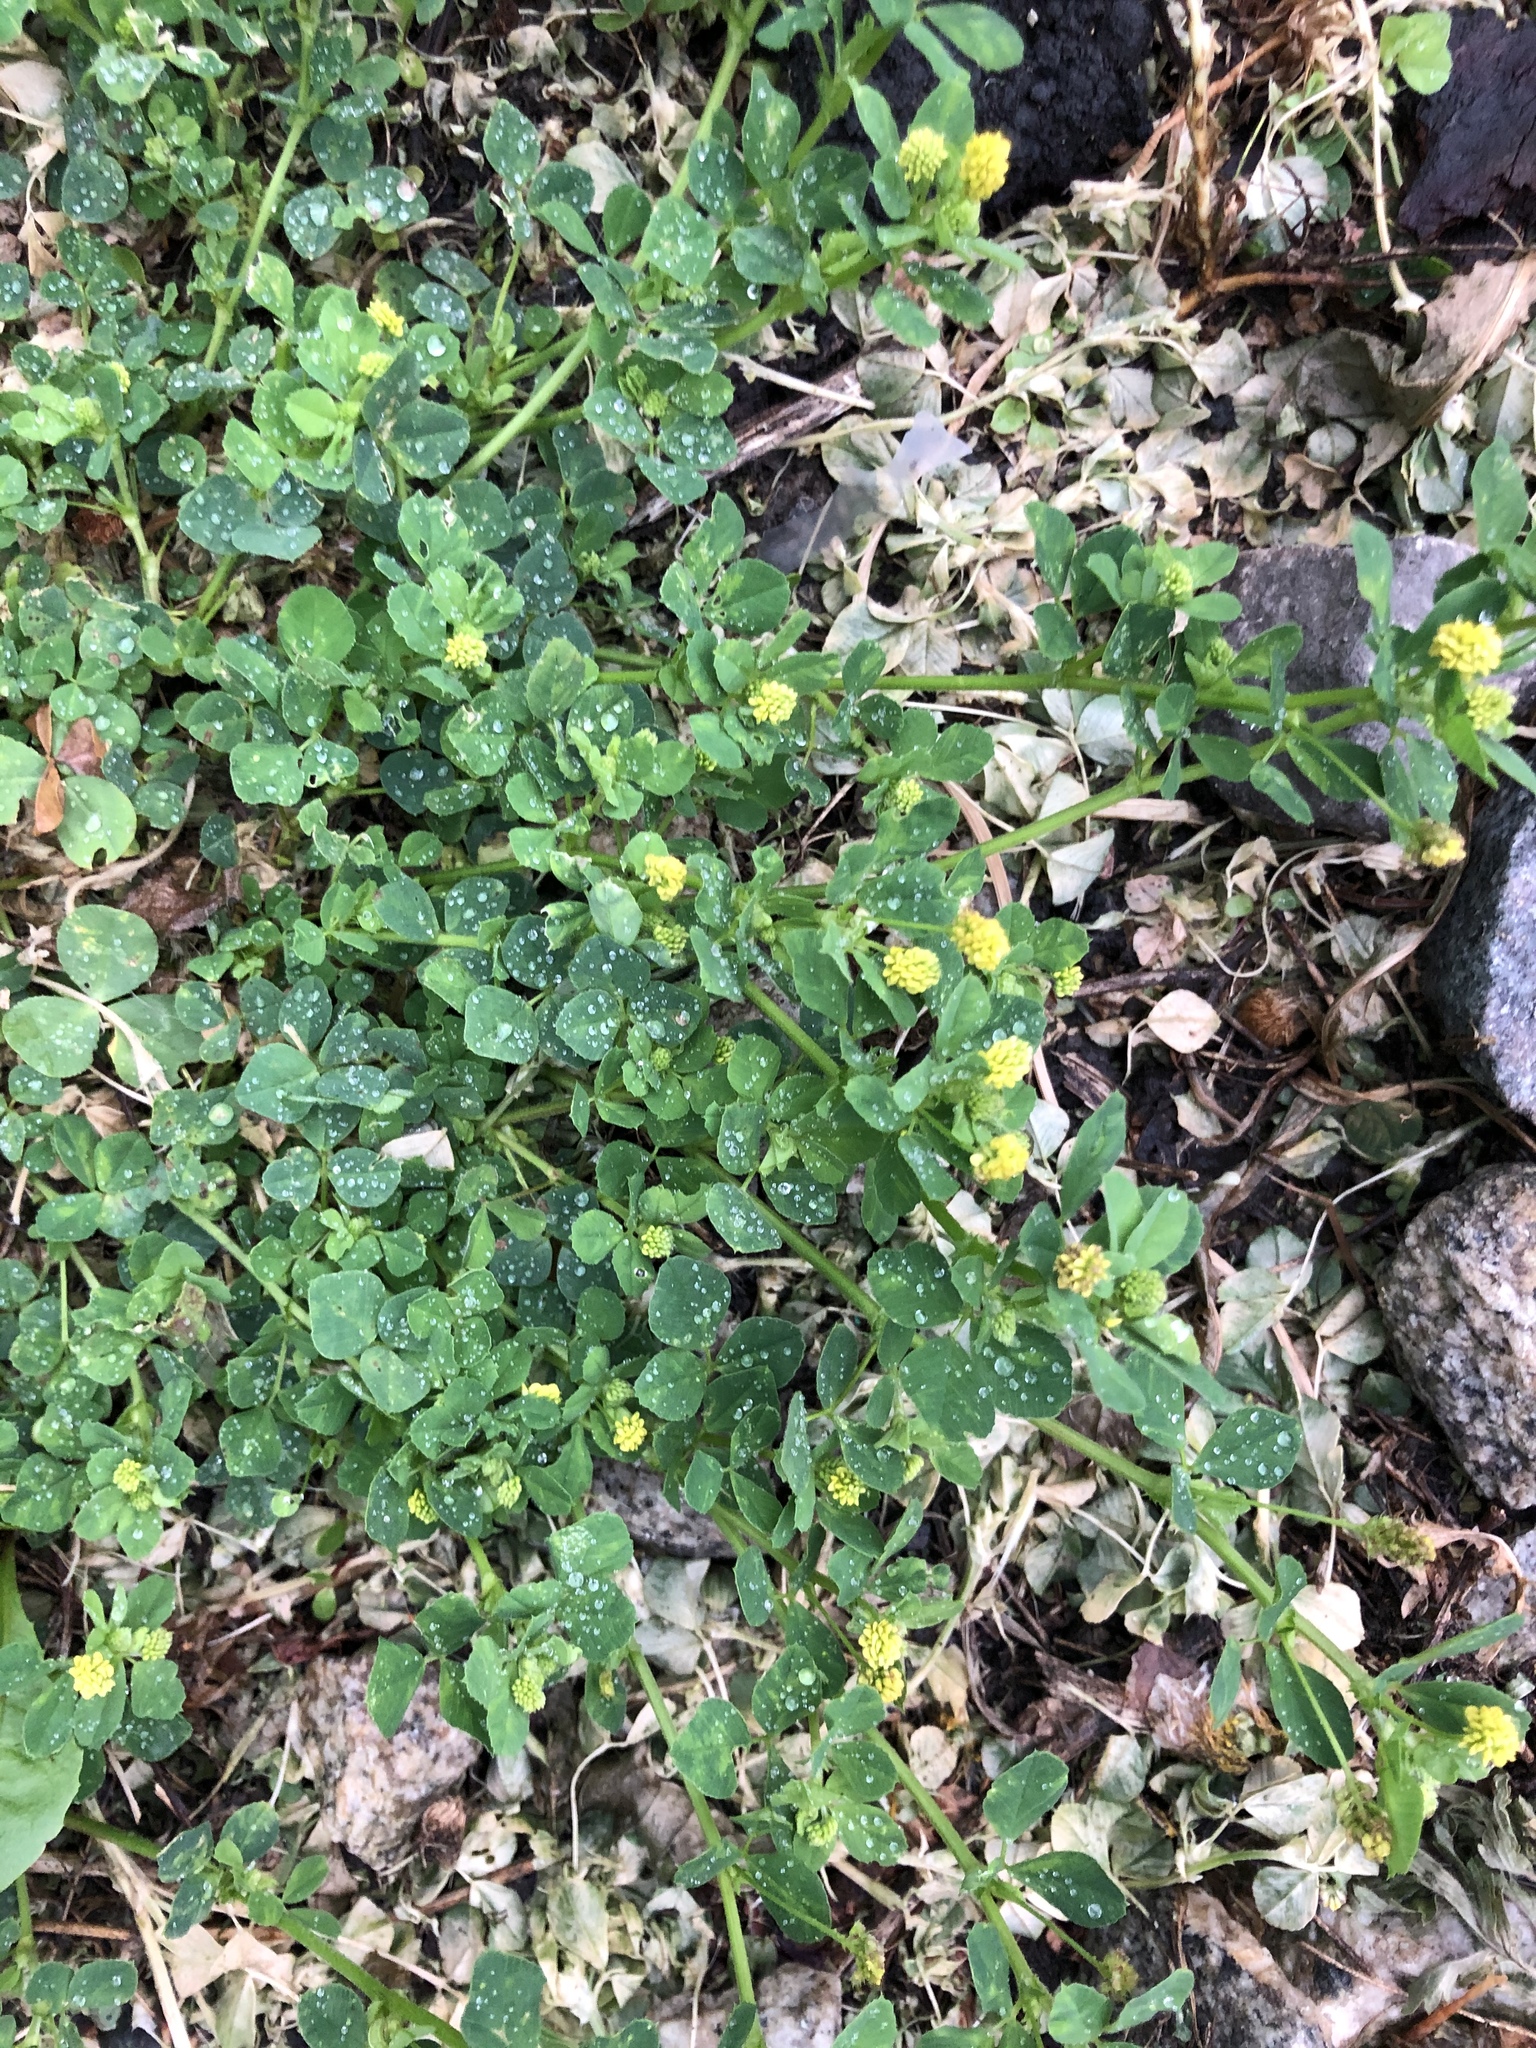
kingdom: Plantae
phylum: Tracheophyta
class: Magnoliopsida
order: Fabales
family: Fabaceae
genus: Medicago
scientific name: Medicago lupulina
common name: Black medick
